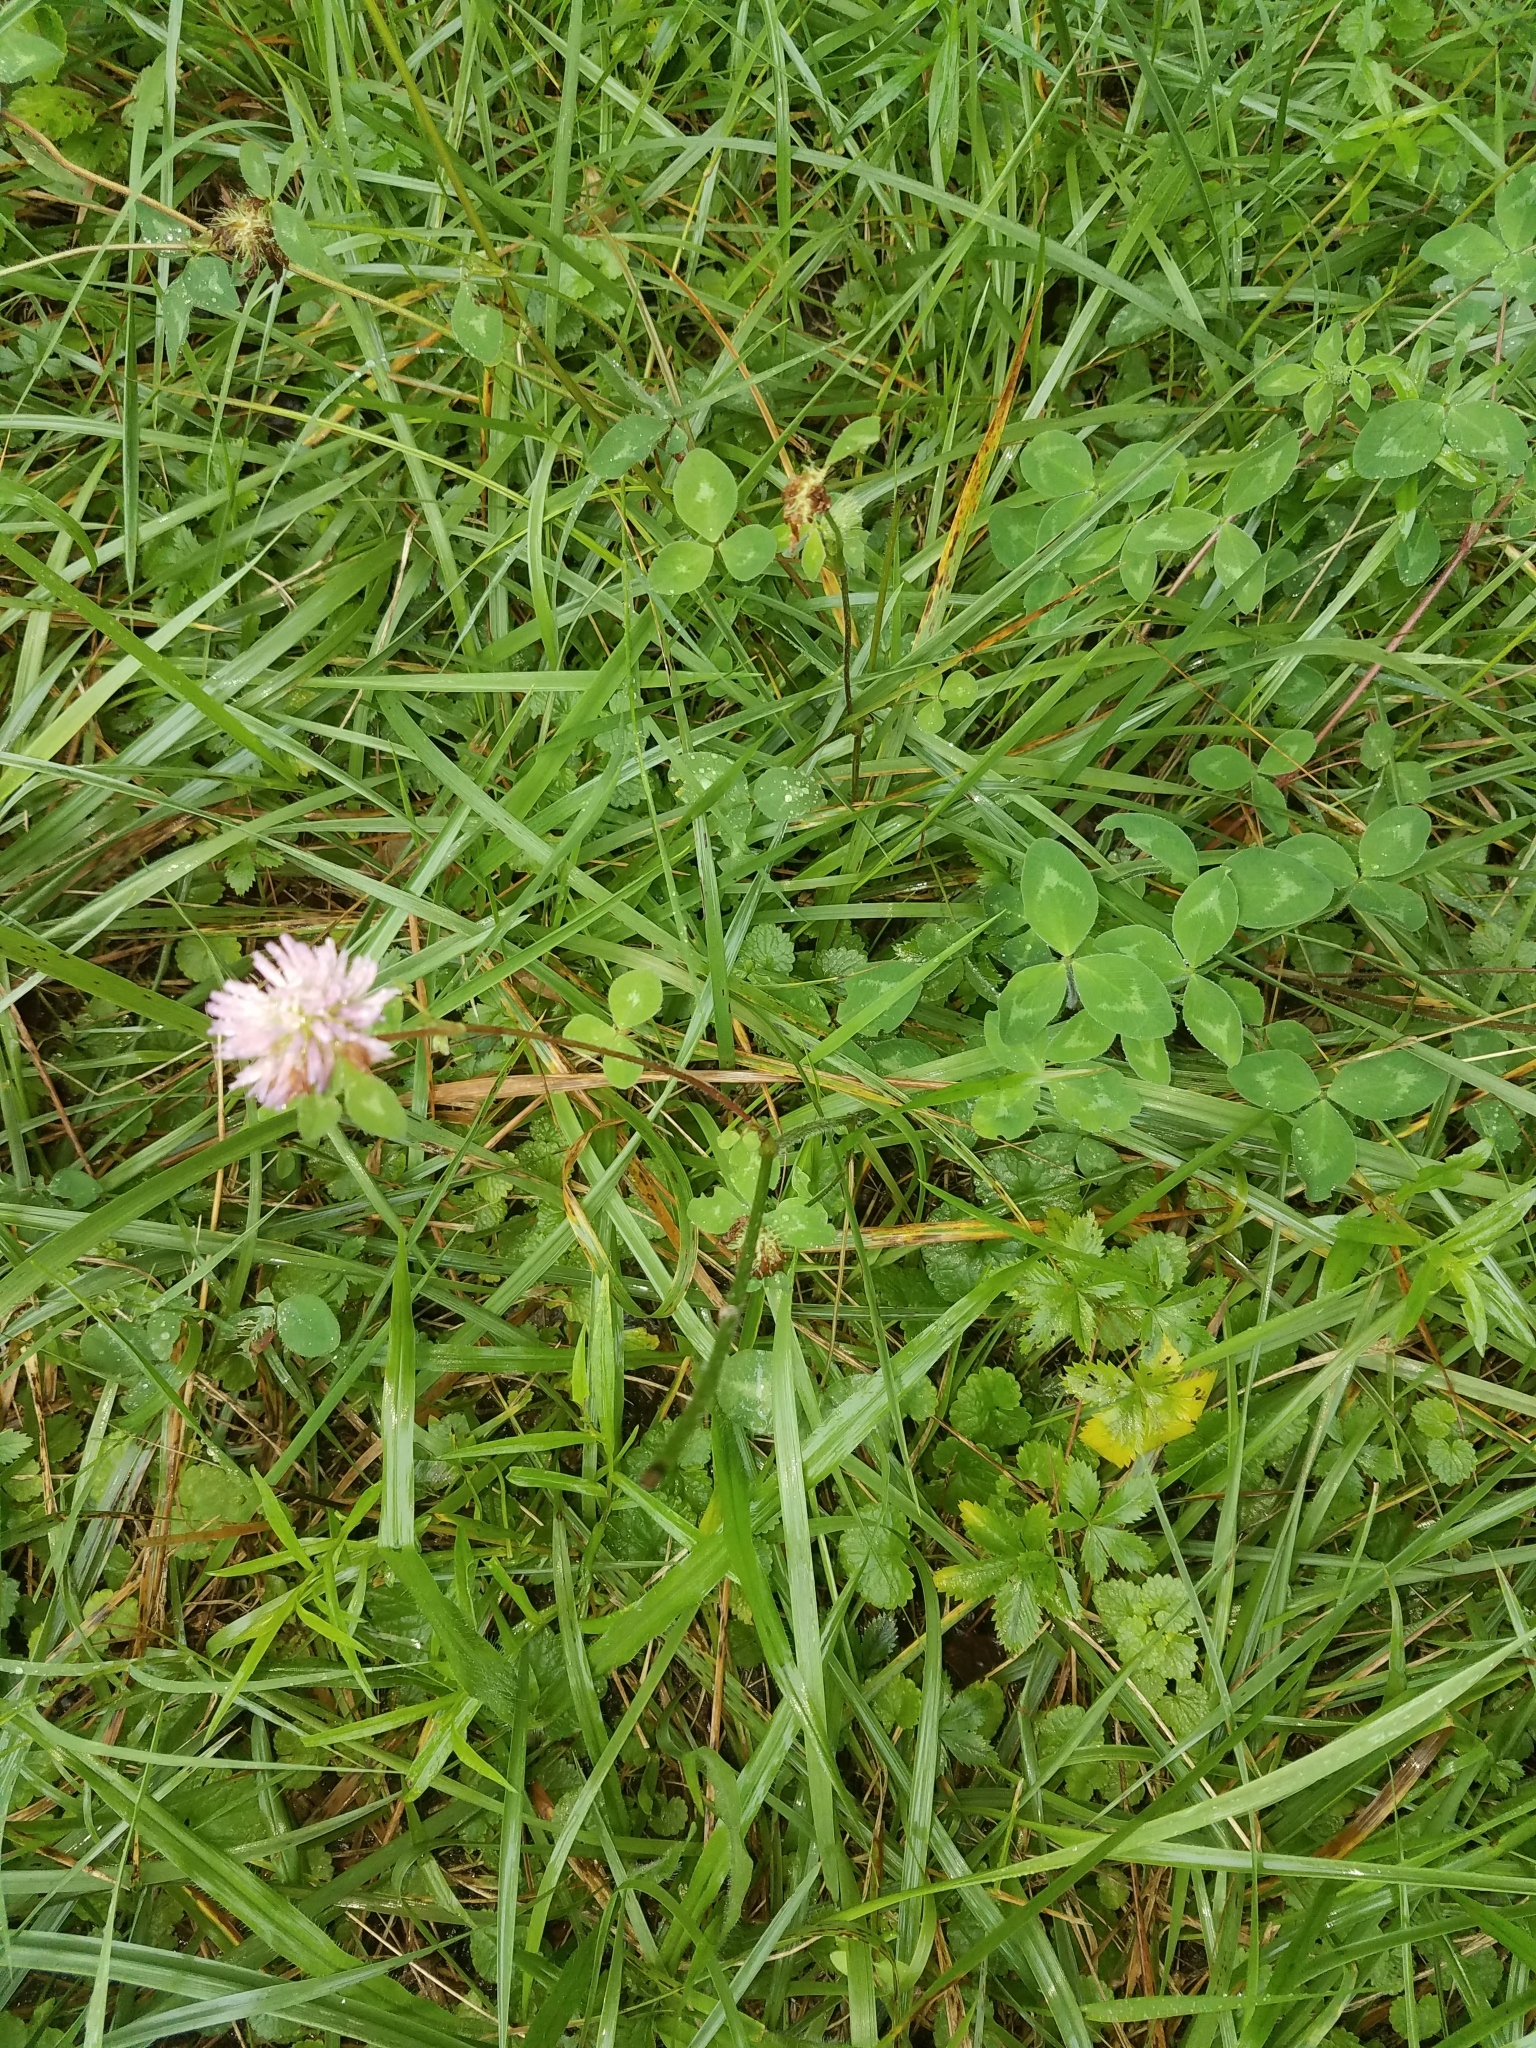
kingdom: Plantae
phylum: Tracheophyta
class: Magnoliopsida
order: Fabales
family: Fabaceae
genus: Trifolium
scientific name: Trifolium pratense
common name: Red clover
